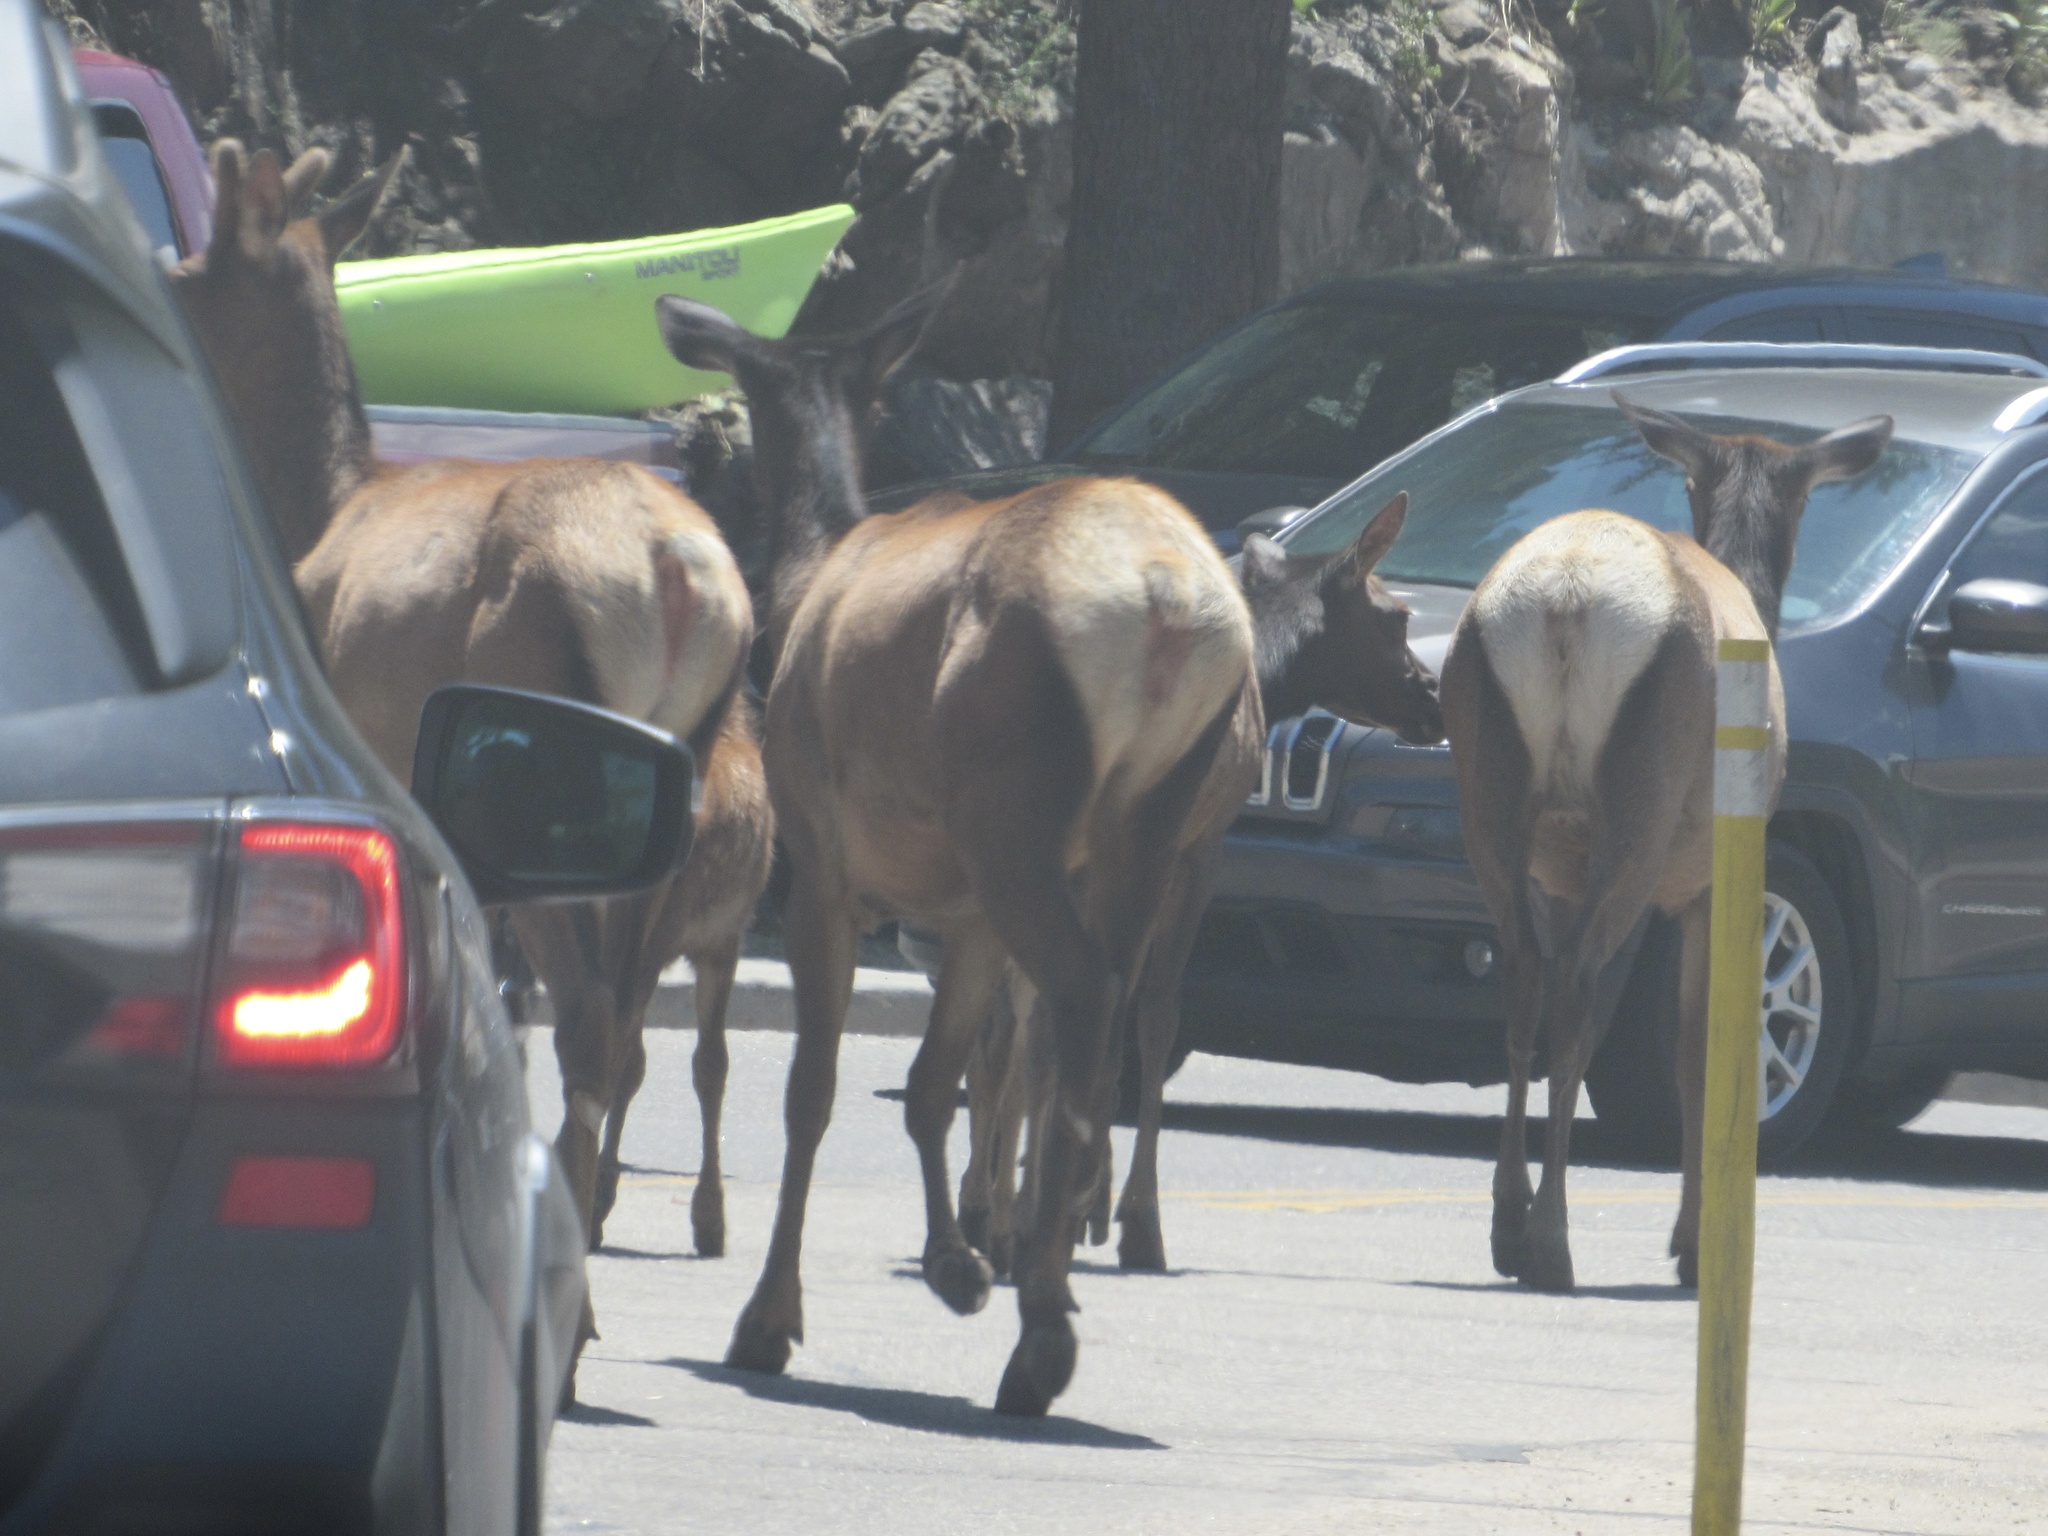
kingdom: Animalia
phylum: Chordata
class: Mammalia
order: Artiodactyla
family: Cervidae
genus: Cervus
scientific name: Cervus elaphus
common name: Red deer
